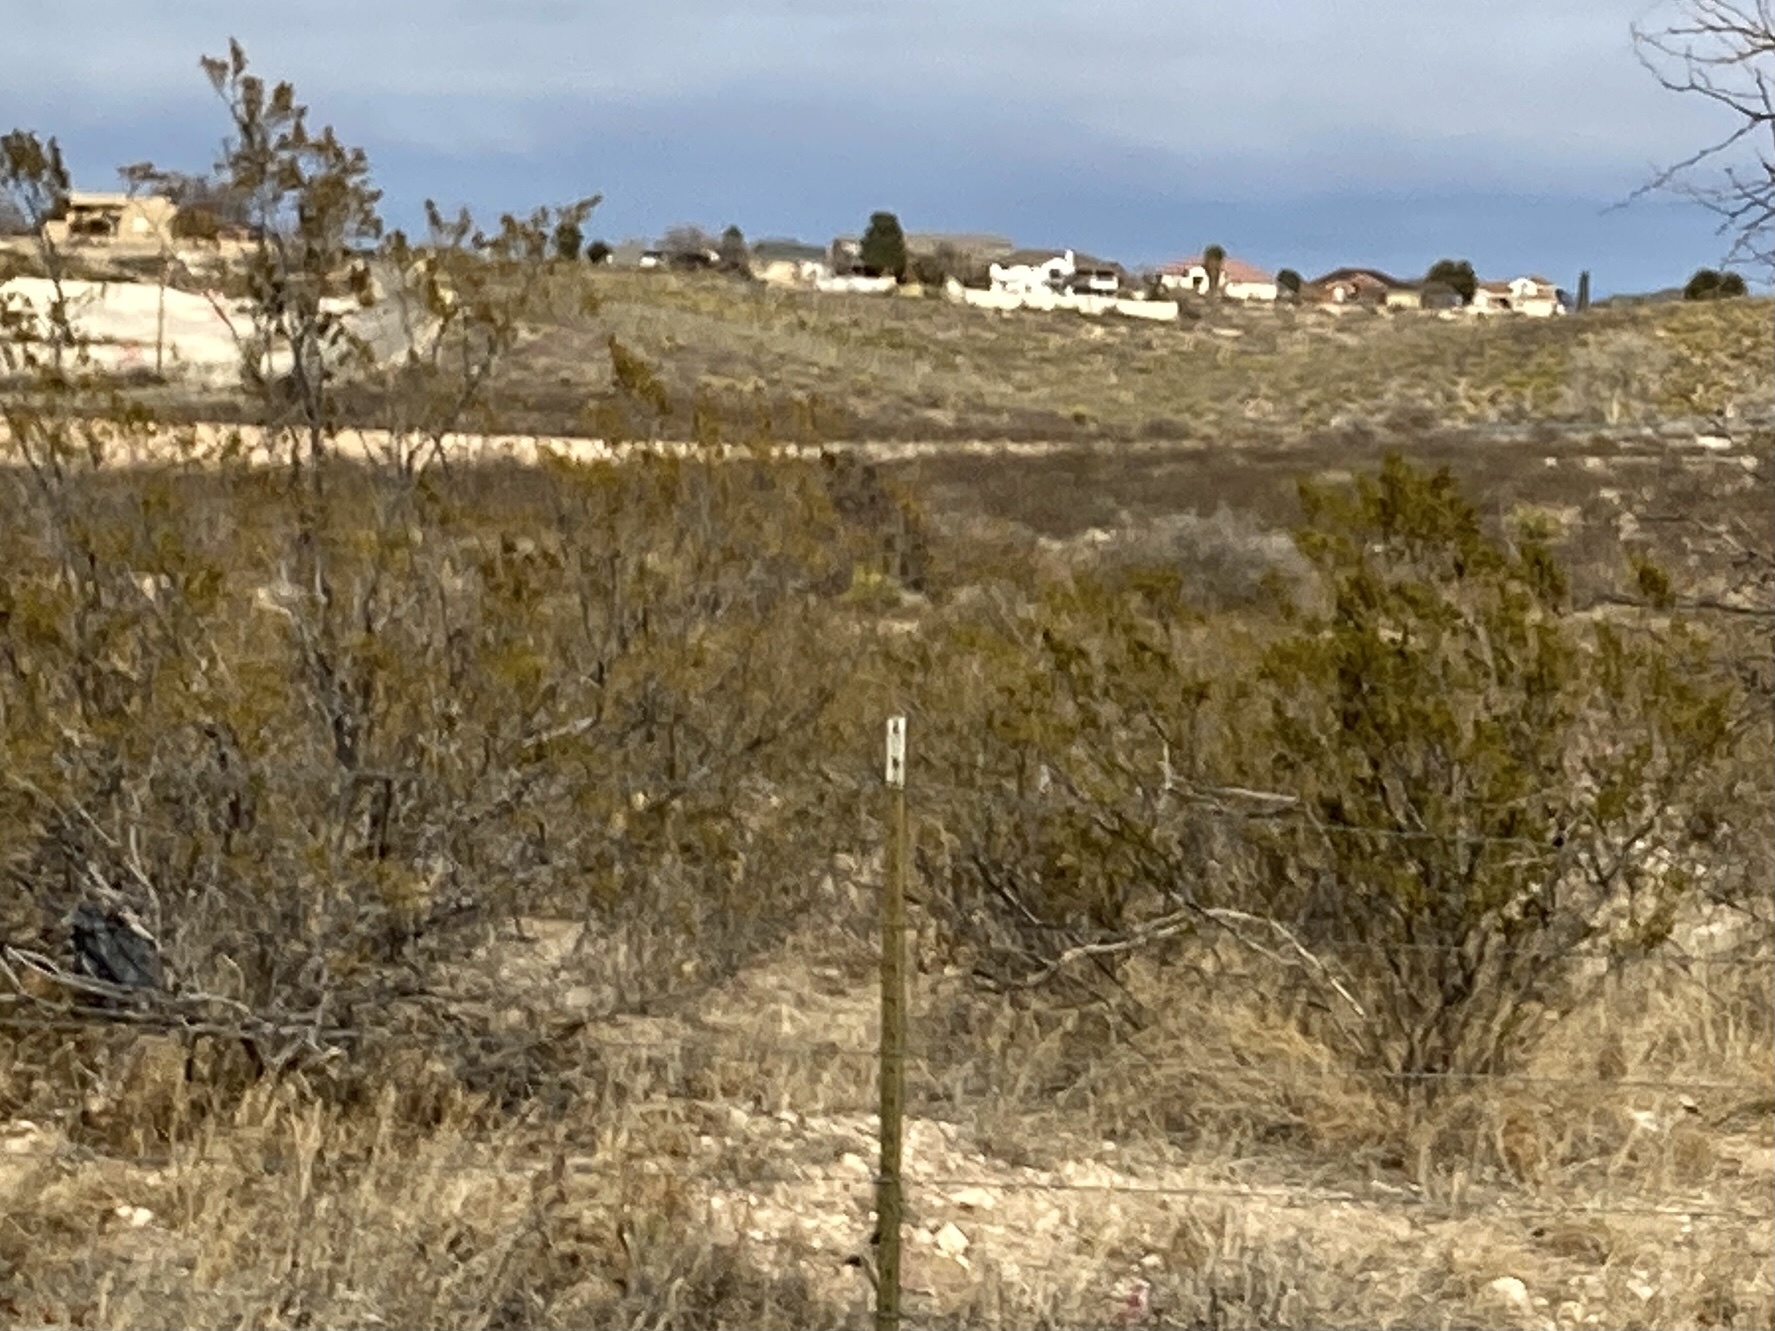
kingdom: Plantae
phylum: Tracheophyta
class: Magnoliopsida
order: Zygophyllales
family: Zygophyllaceae
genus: Larrea
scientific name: Larrea tridentata
